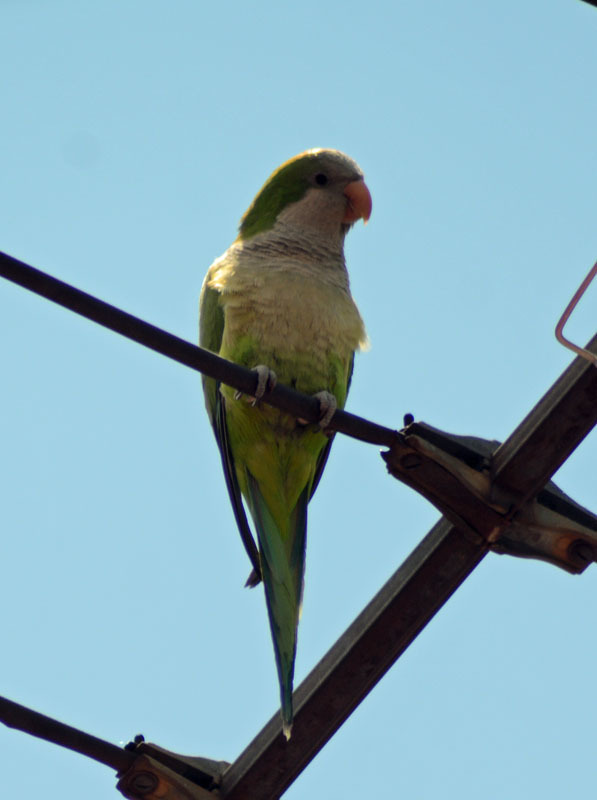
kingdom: Animalia
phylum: Chordata
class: Aves
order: Psittaciformes
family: Psittacidae
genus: Myiopsitta
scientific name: Myiopsitta monachus
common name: Monk parakeet
